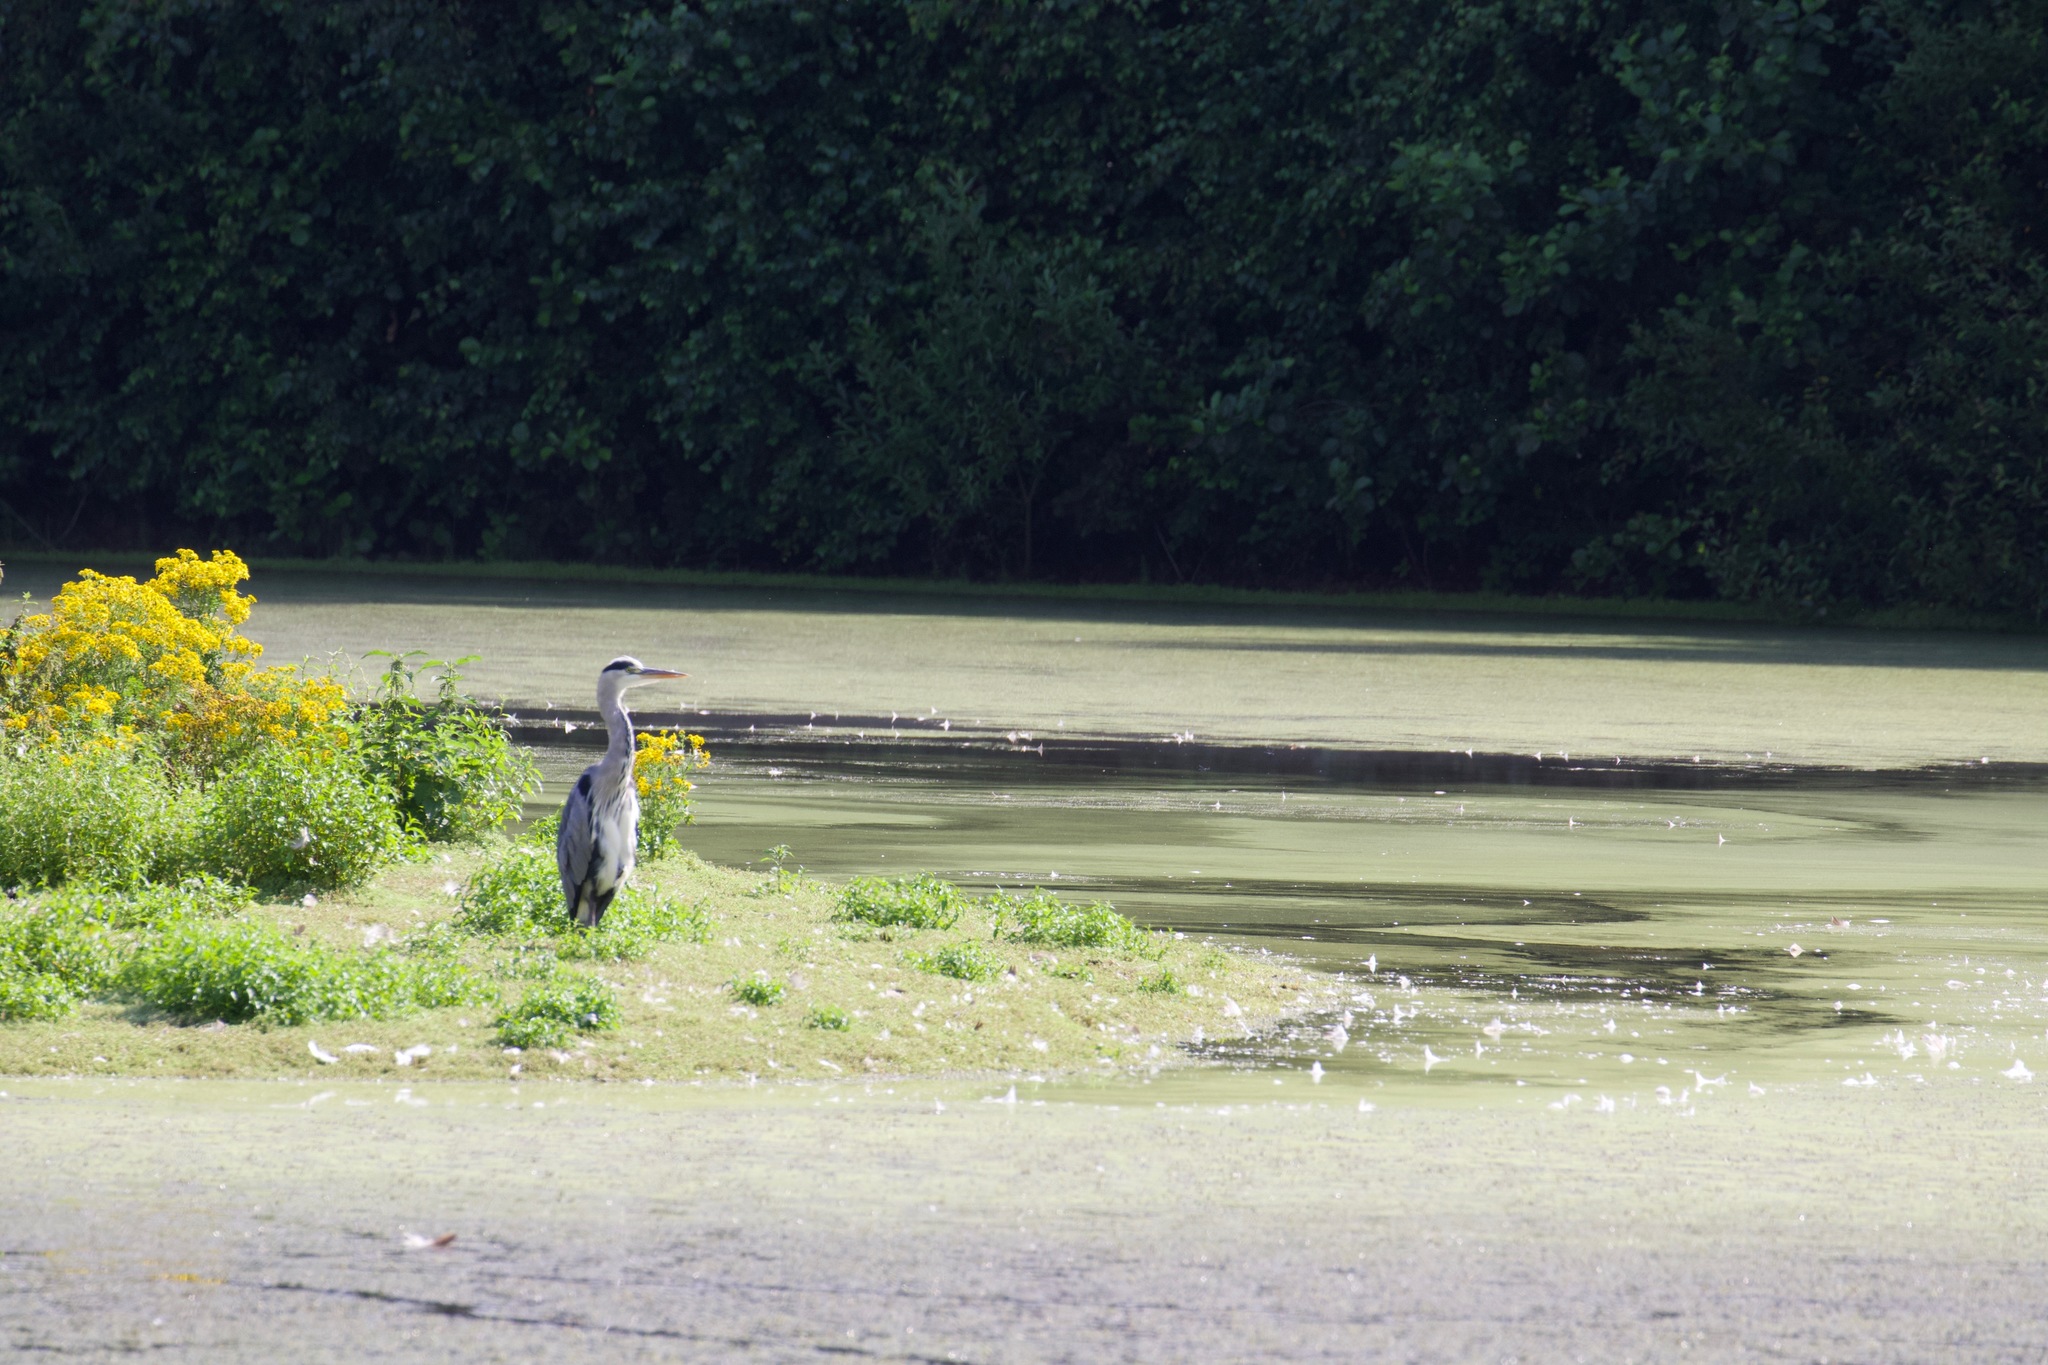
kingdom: Animalia
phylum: Chordata
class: Aves
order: Pelecaniformes
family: Ardeidae
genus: Ardea
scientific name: Ardea cinerea
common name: Grey heron
